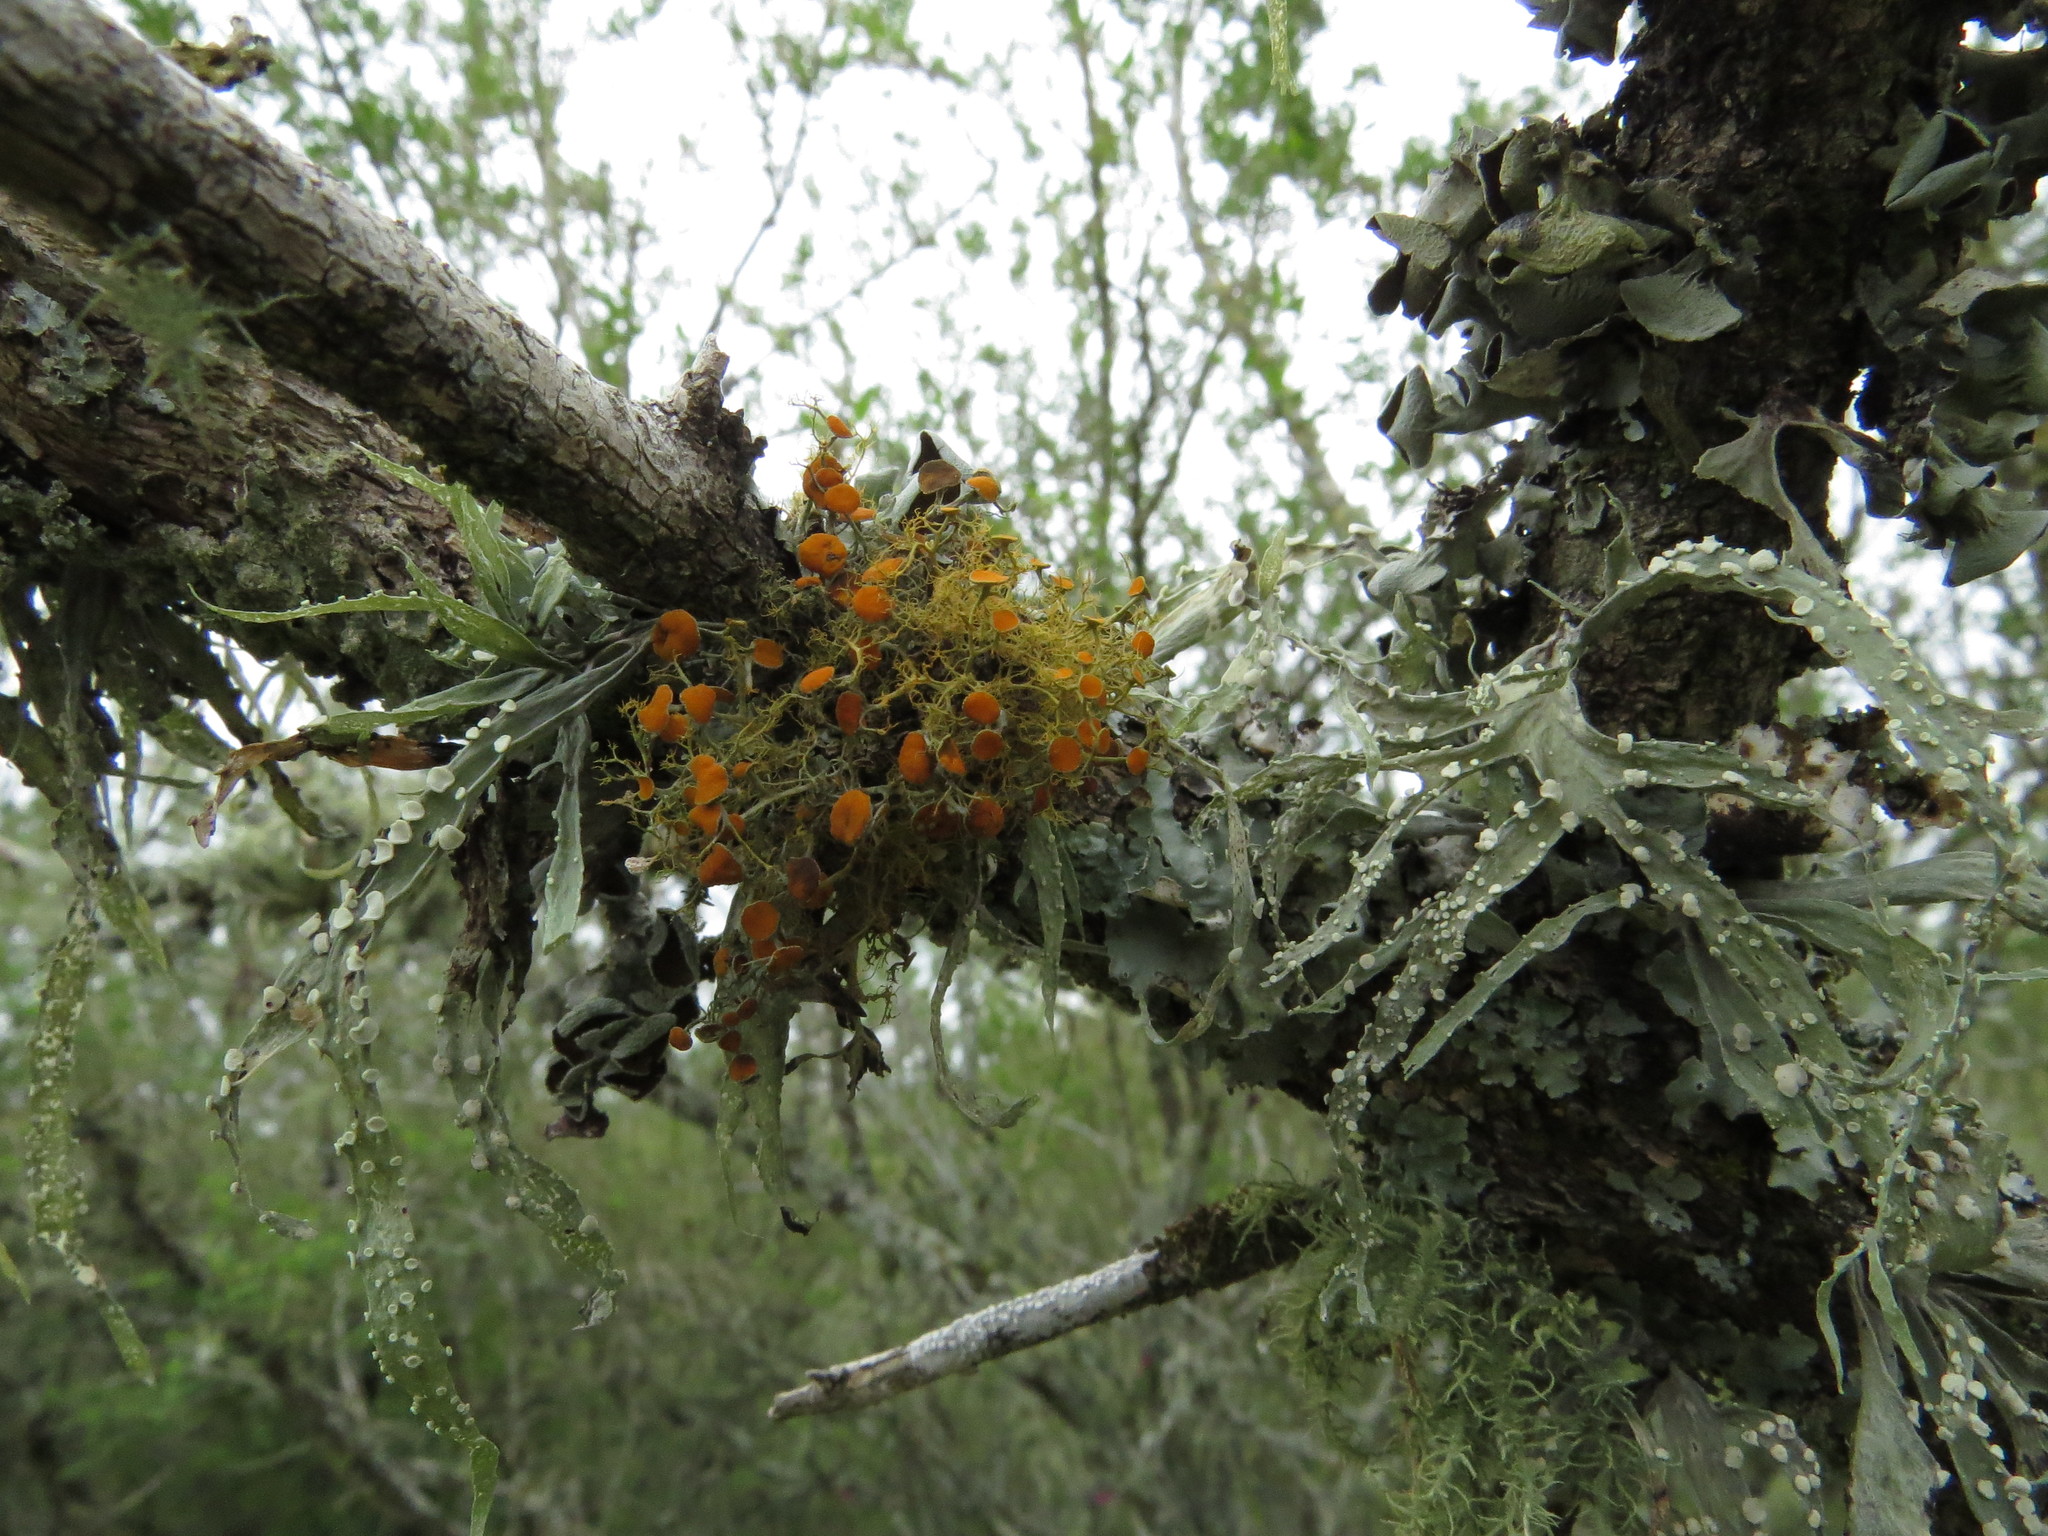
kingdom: Fungi
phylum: Ascomycota
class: Lecanoromycetes
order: Teloschistales
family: Teloschistaceae
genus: Teloschistes
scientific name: Teloschistes exilis
